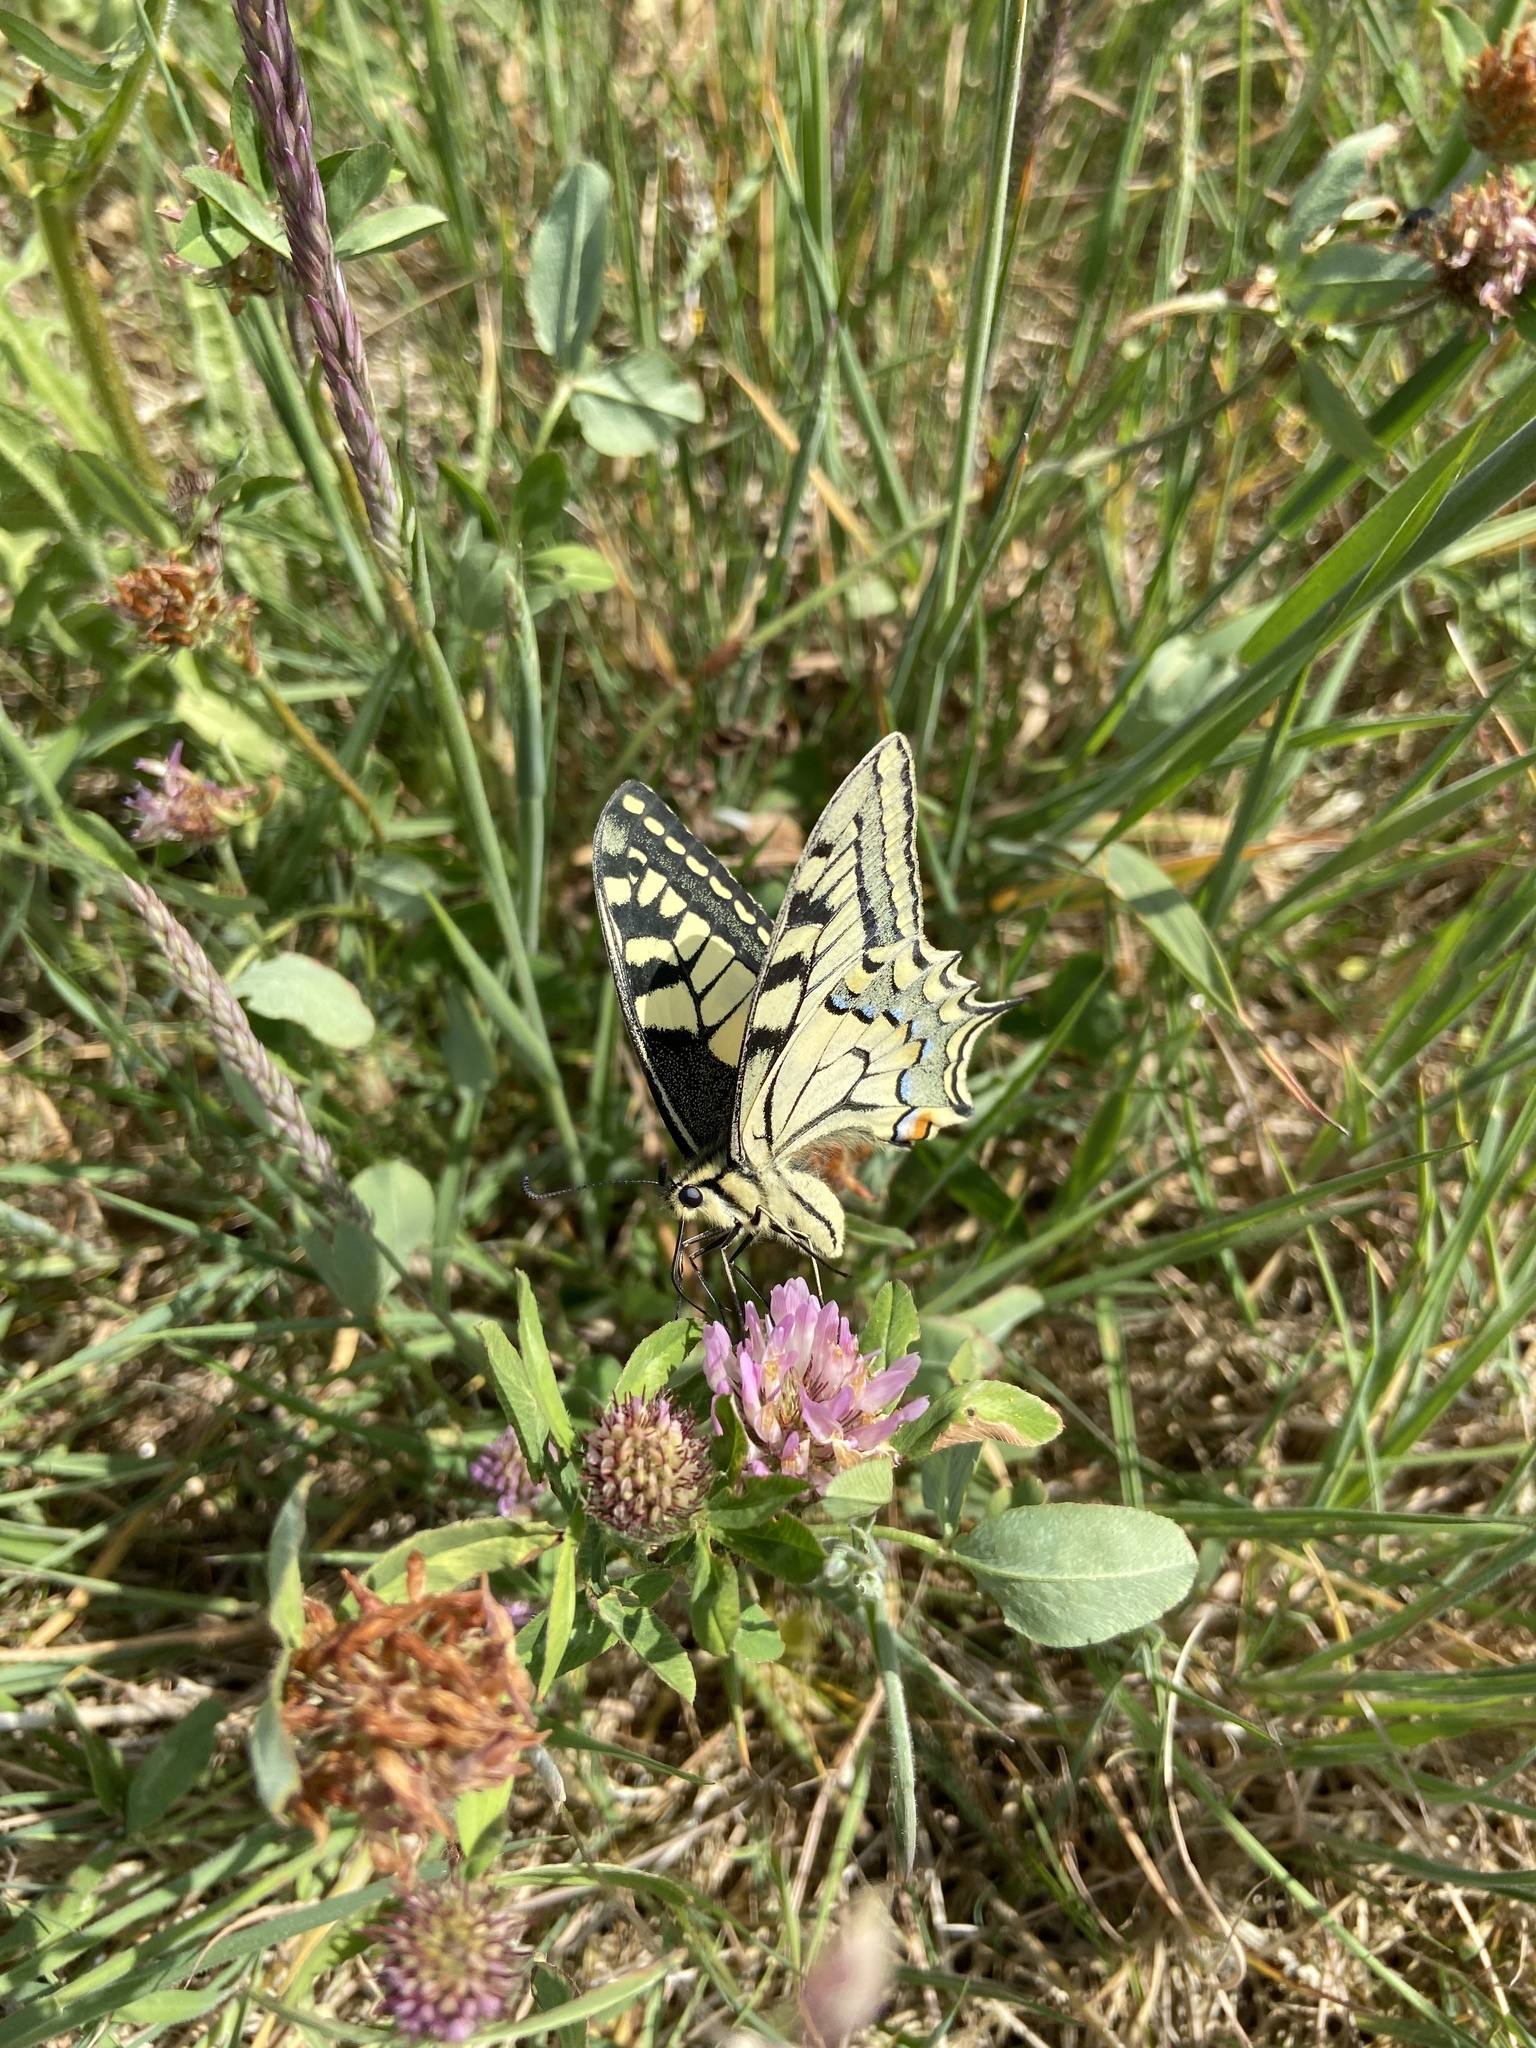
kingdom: Animalia
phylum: Arthropoda
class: Insecta
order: Lepidoptera
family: Papilionidae
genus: Papilio
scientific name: Papilio machaon
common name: Swallowtail
